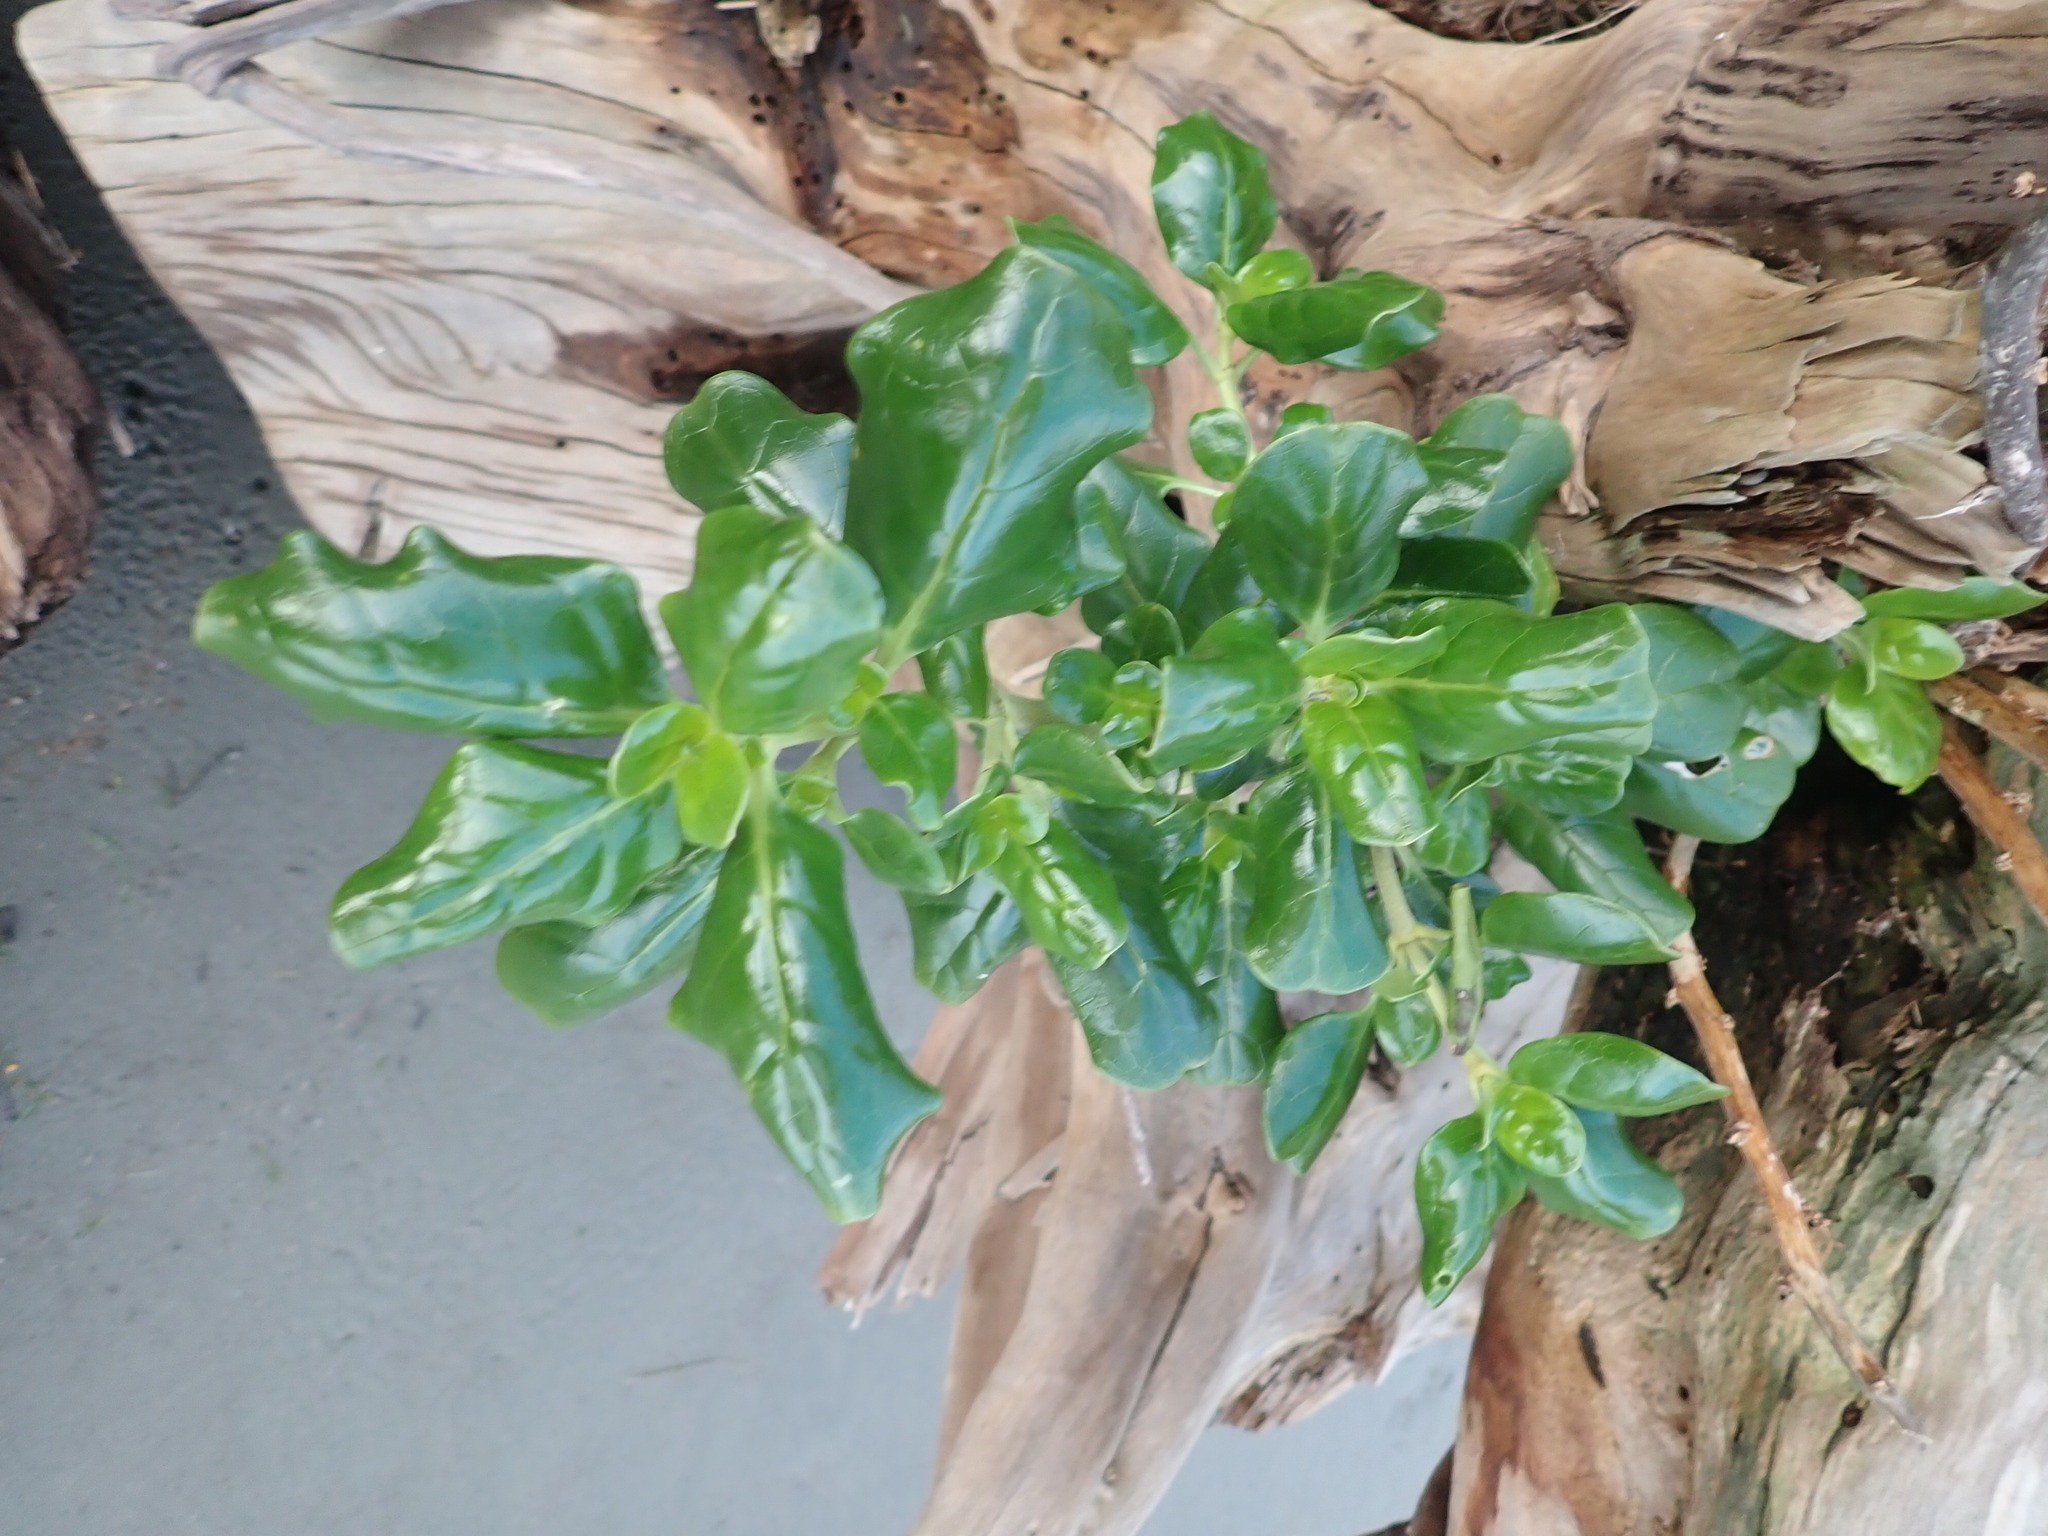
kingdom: Plantae
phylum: Tracheophyta
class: Magnoliopsida
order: Gentianales
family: Rubiaceae
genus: Coprosma
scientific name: Coprosma repens
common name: Tree bedstraw
